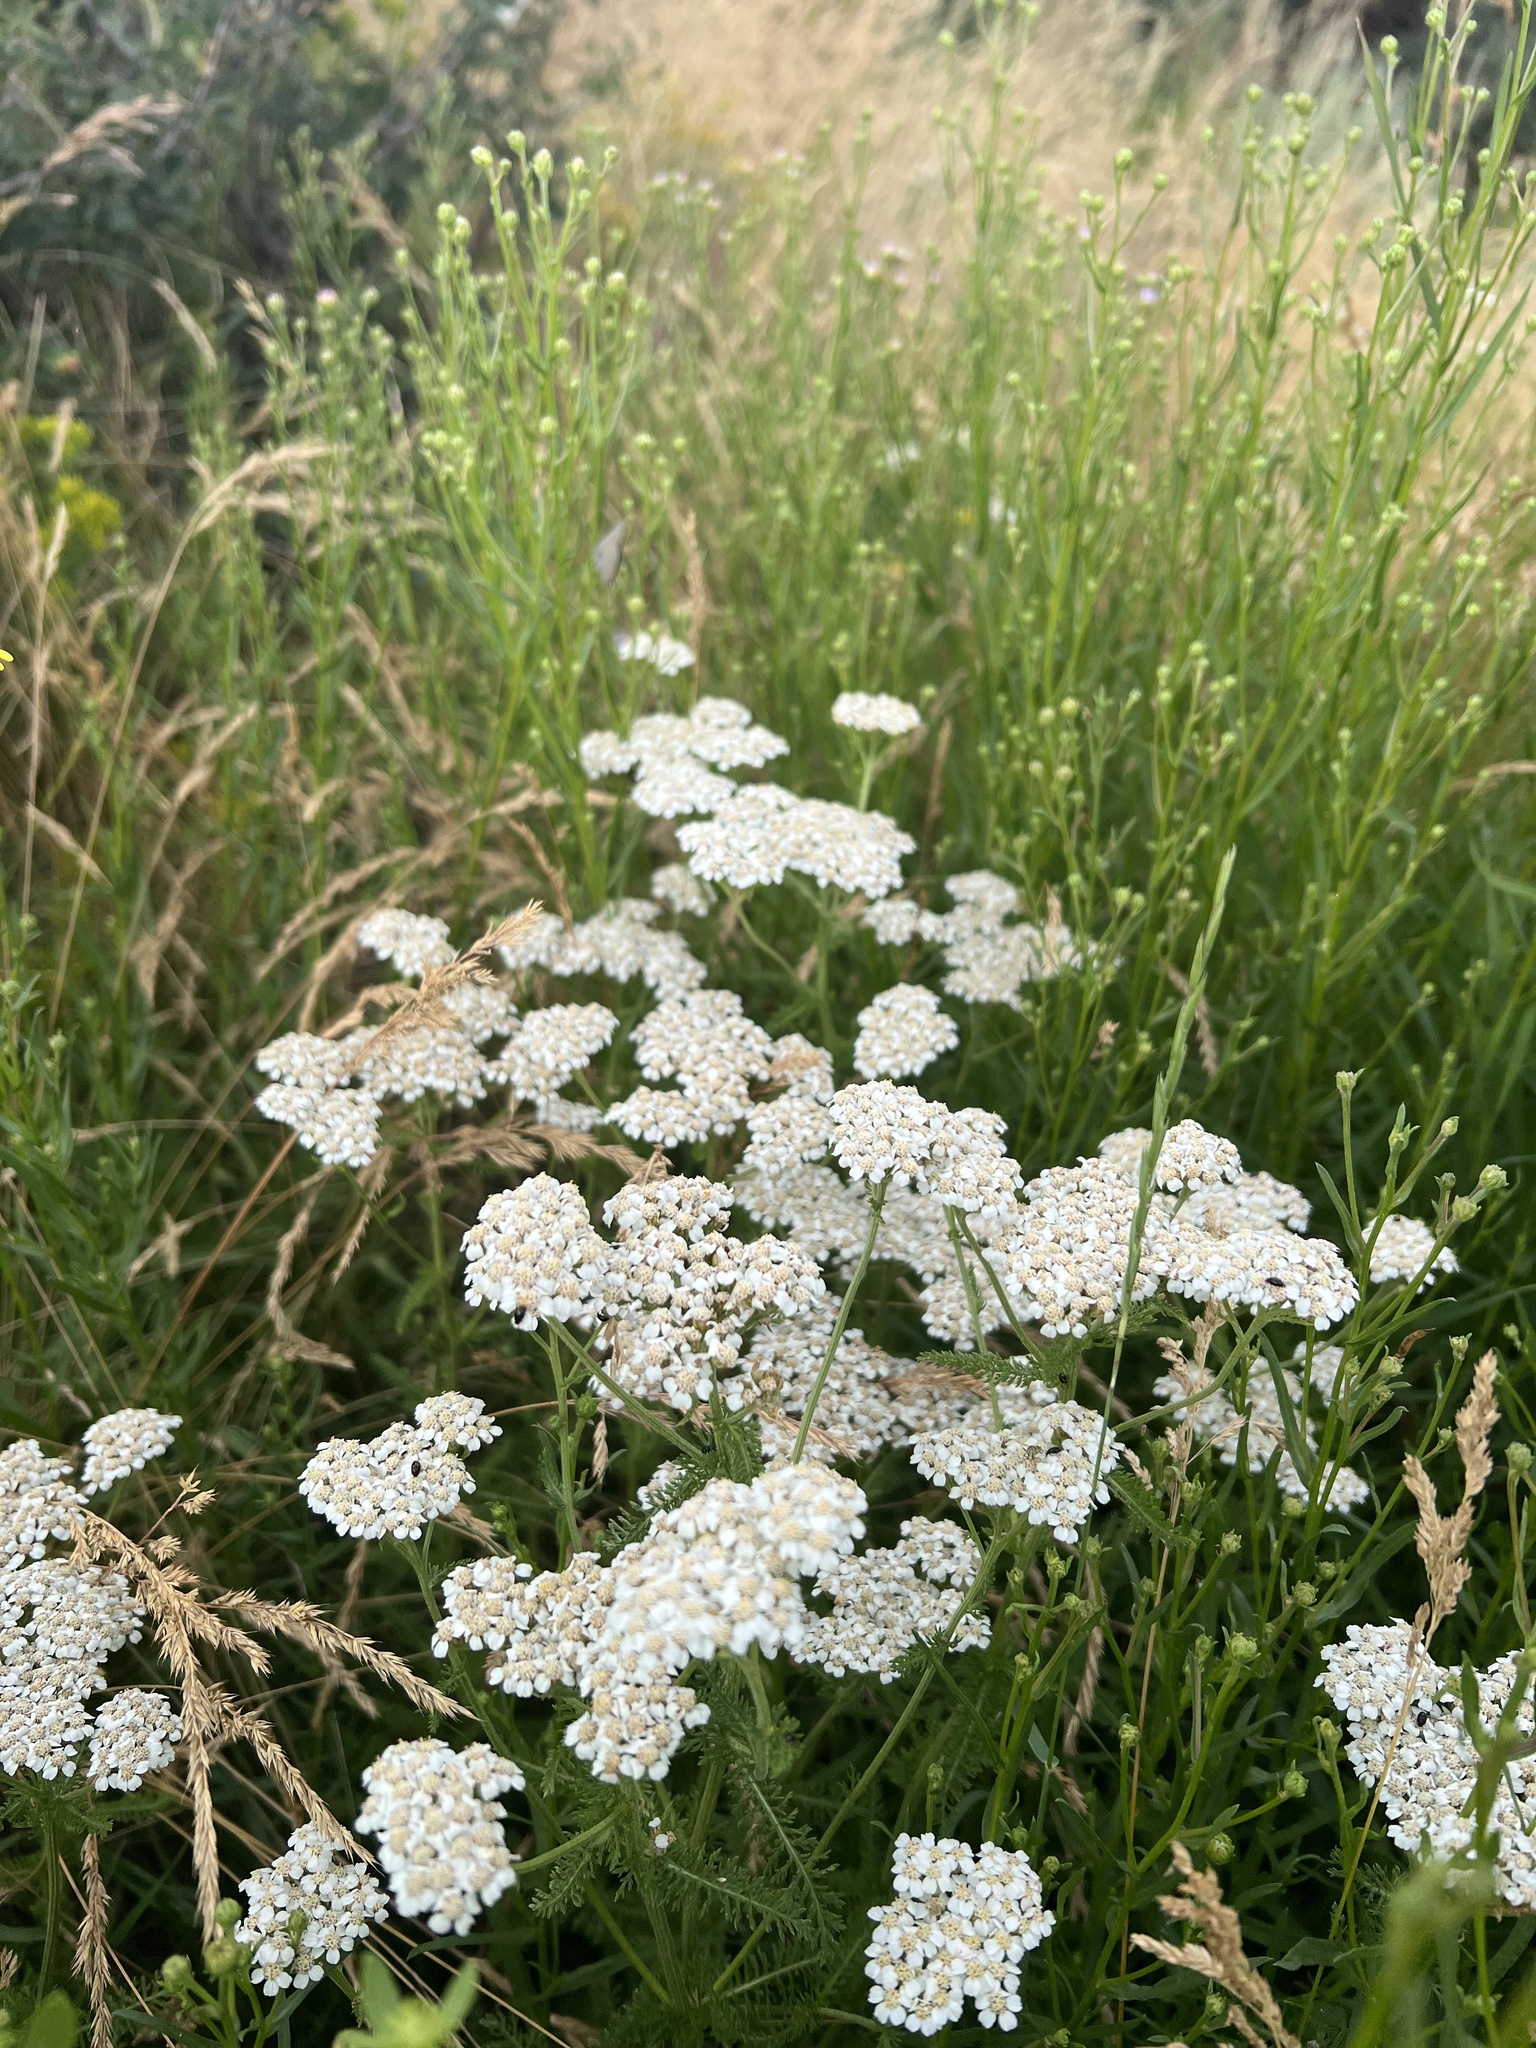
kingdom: Plantae
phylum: Tracheophyta
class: Magnoliopsida
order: Asterales
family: Asteraceae
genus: Achillea
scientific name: Achillea millefolium
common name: Yarrow
